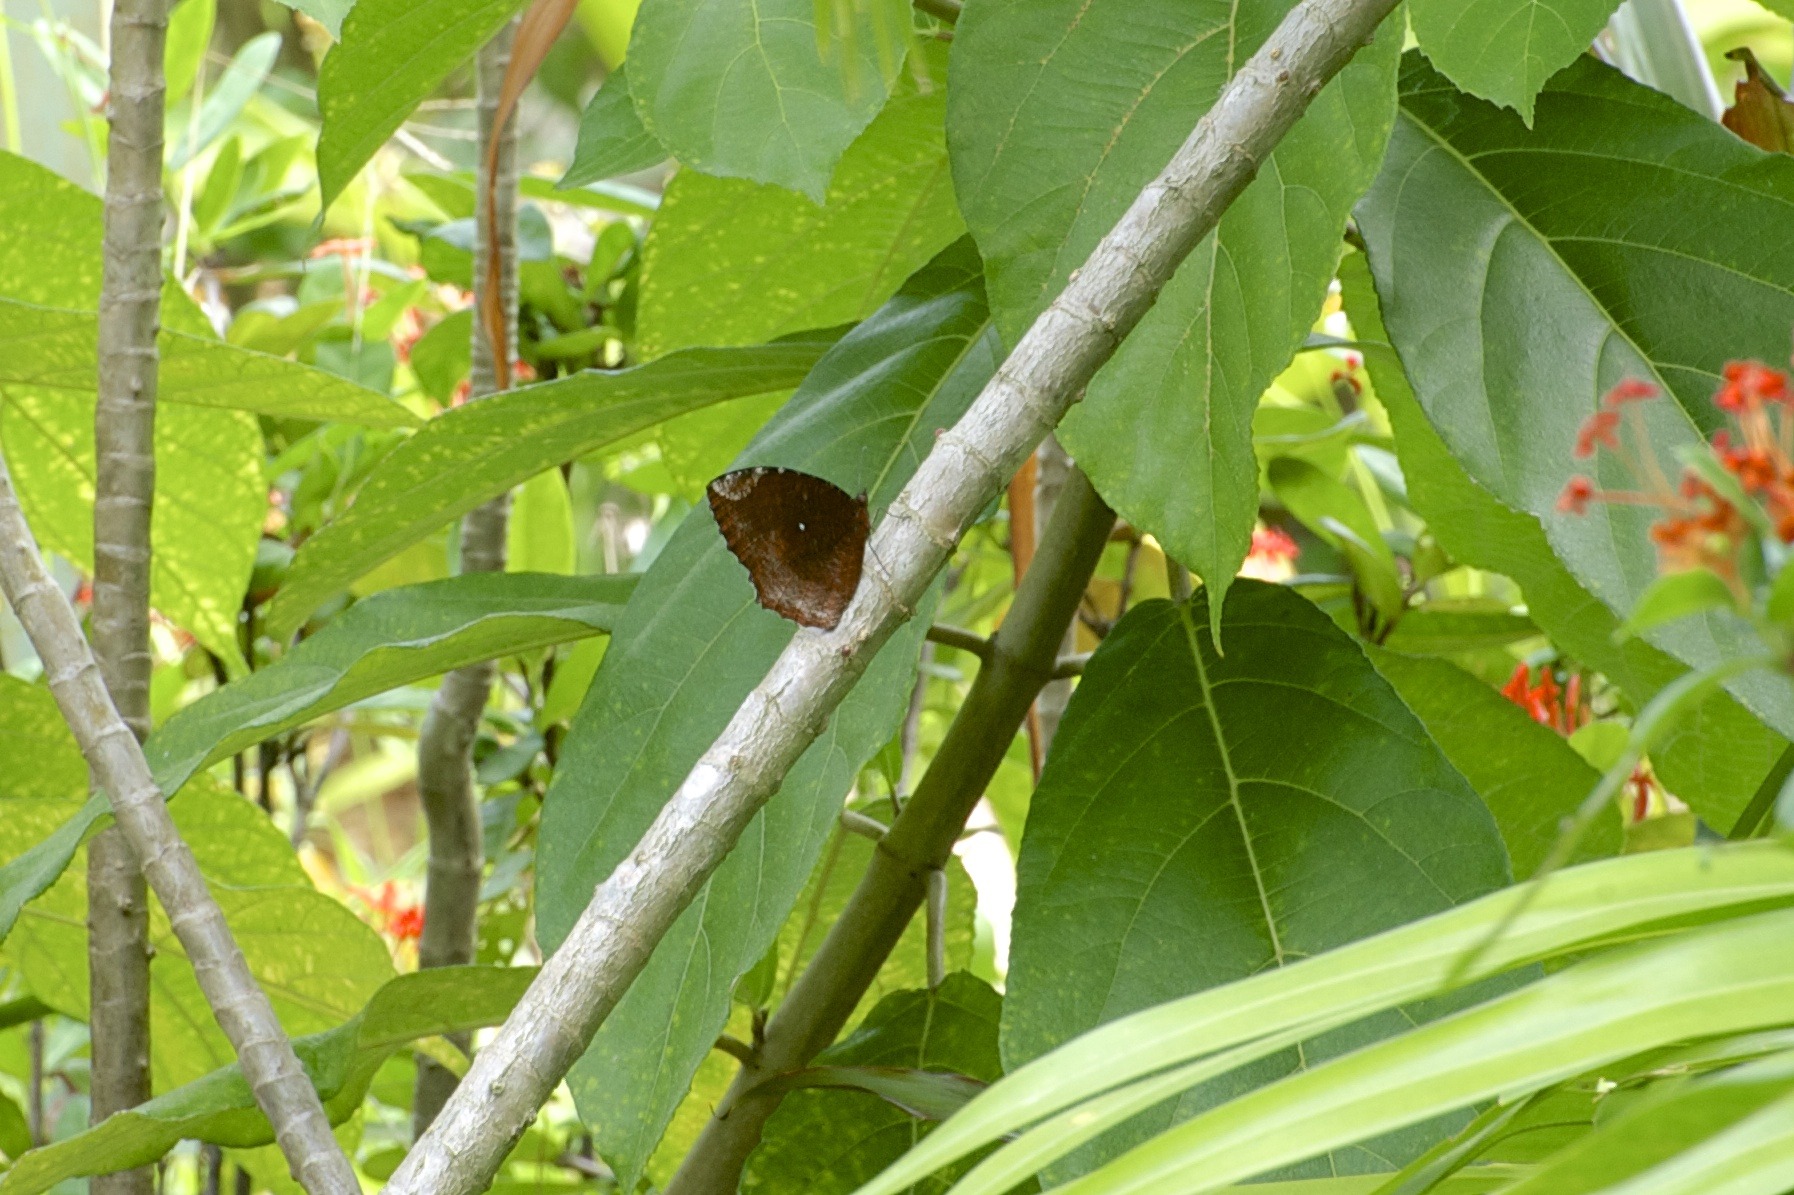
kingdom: Animalia
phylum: Arthropoda
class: Insecta
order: Lepidoptera
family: Nymphalidae
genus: Elymnias
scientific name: Elymnias hypermnestra
